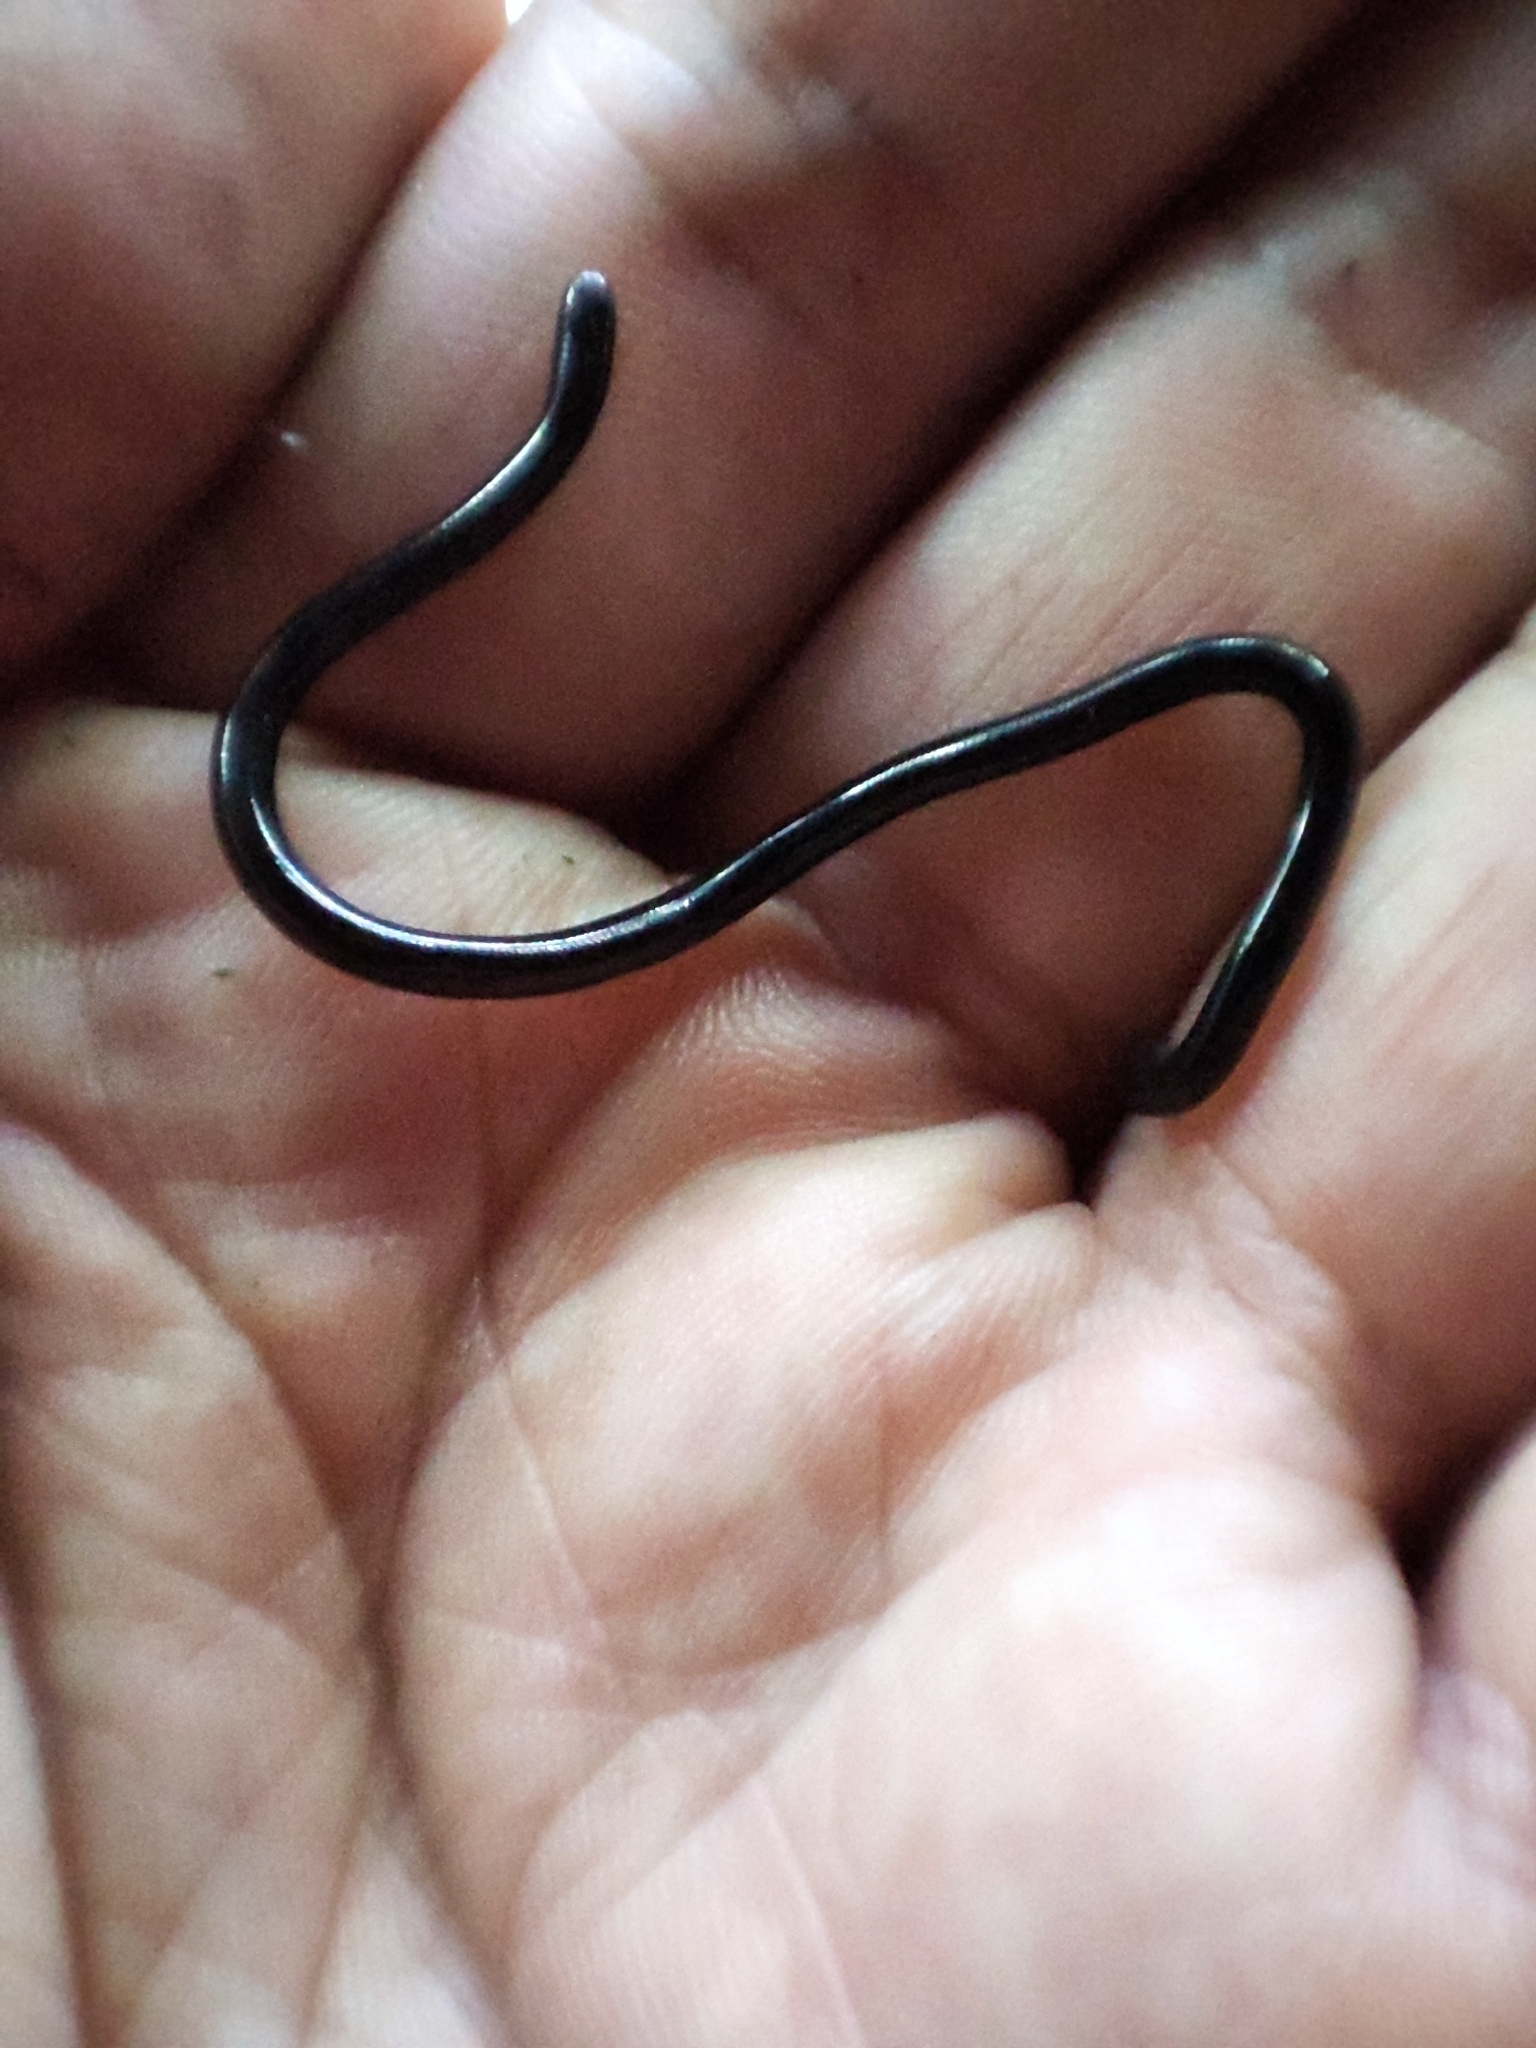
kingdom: Animalia
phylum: Chordata
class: Squamata
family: Typhlopidae
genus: Indotyphlops
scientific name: Indotyphlops braminus
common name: Brahminy blindsnake
